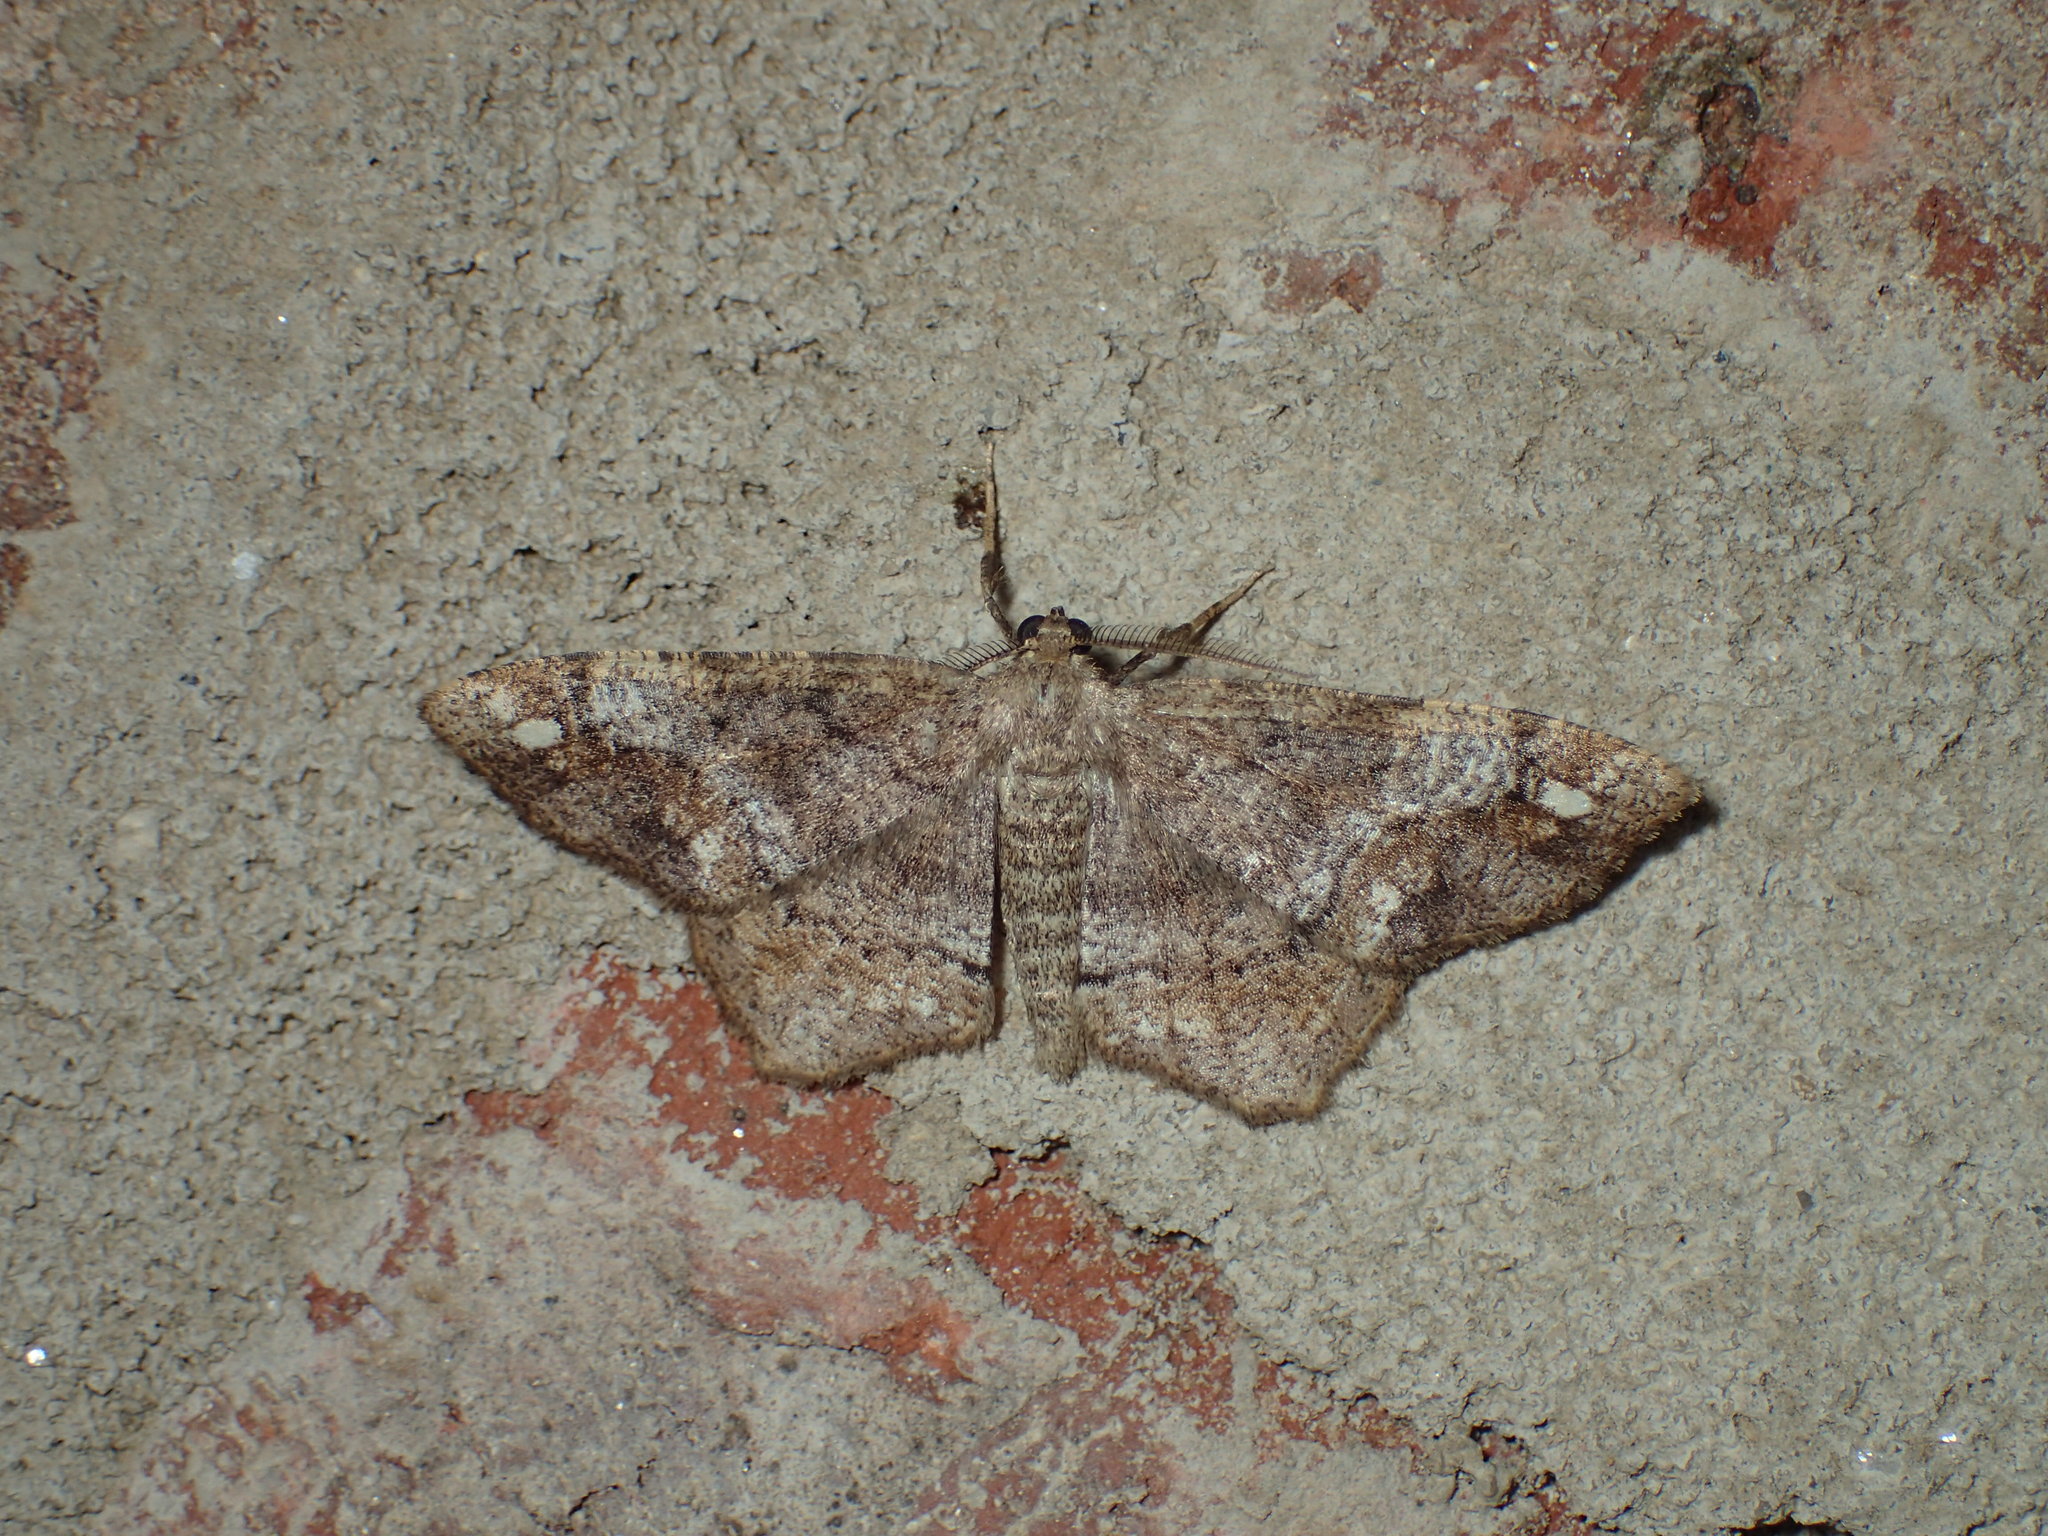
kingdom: Animalia
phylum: Arthropoda
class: Insecta
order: Lepidoptera
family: Geometridae
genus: Hypagyrtis
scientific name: Hypagyrtis unipunctata
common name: One-spotted variant
